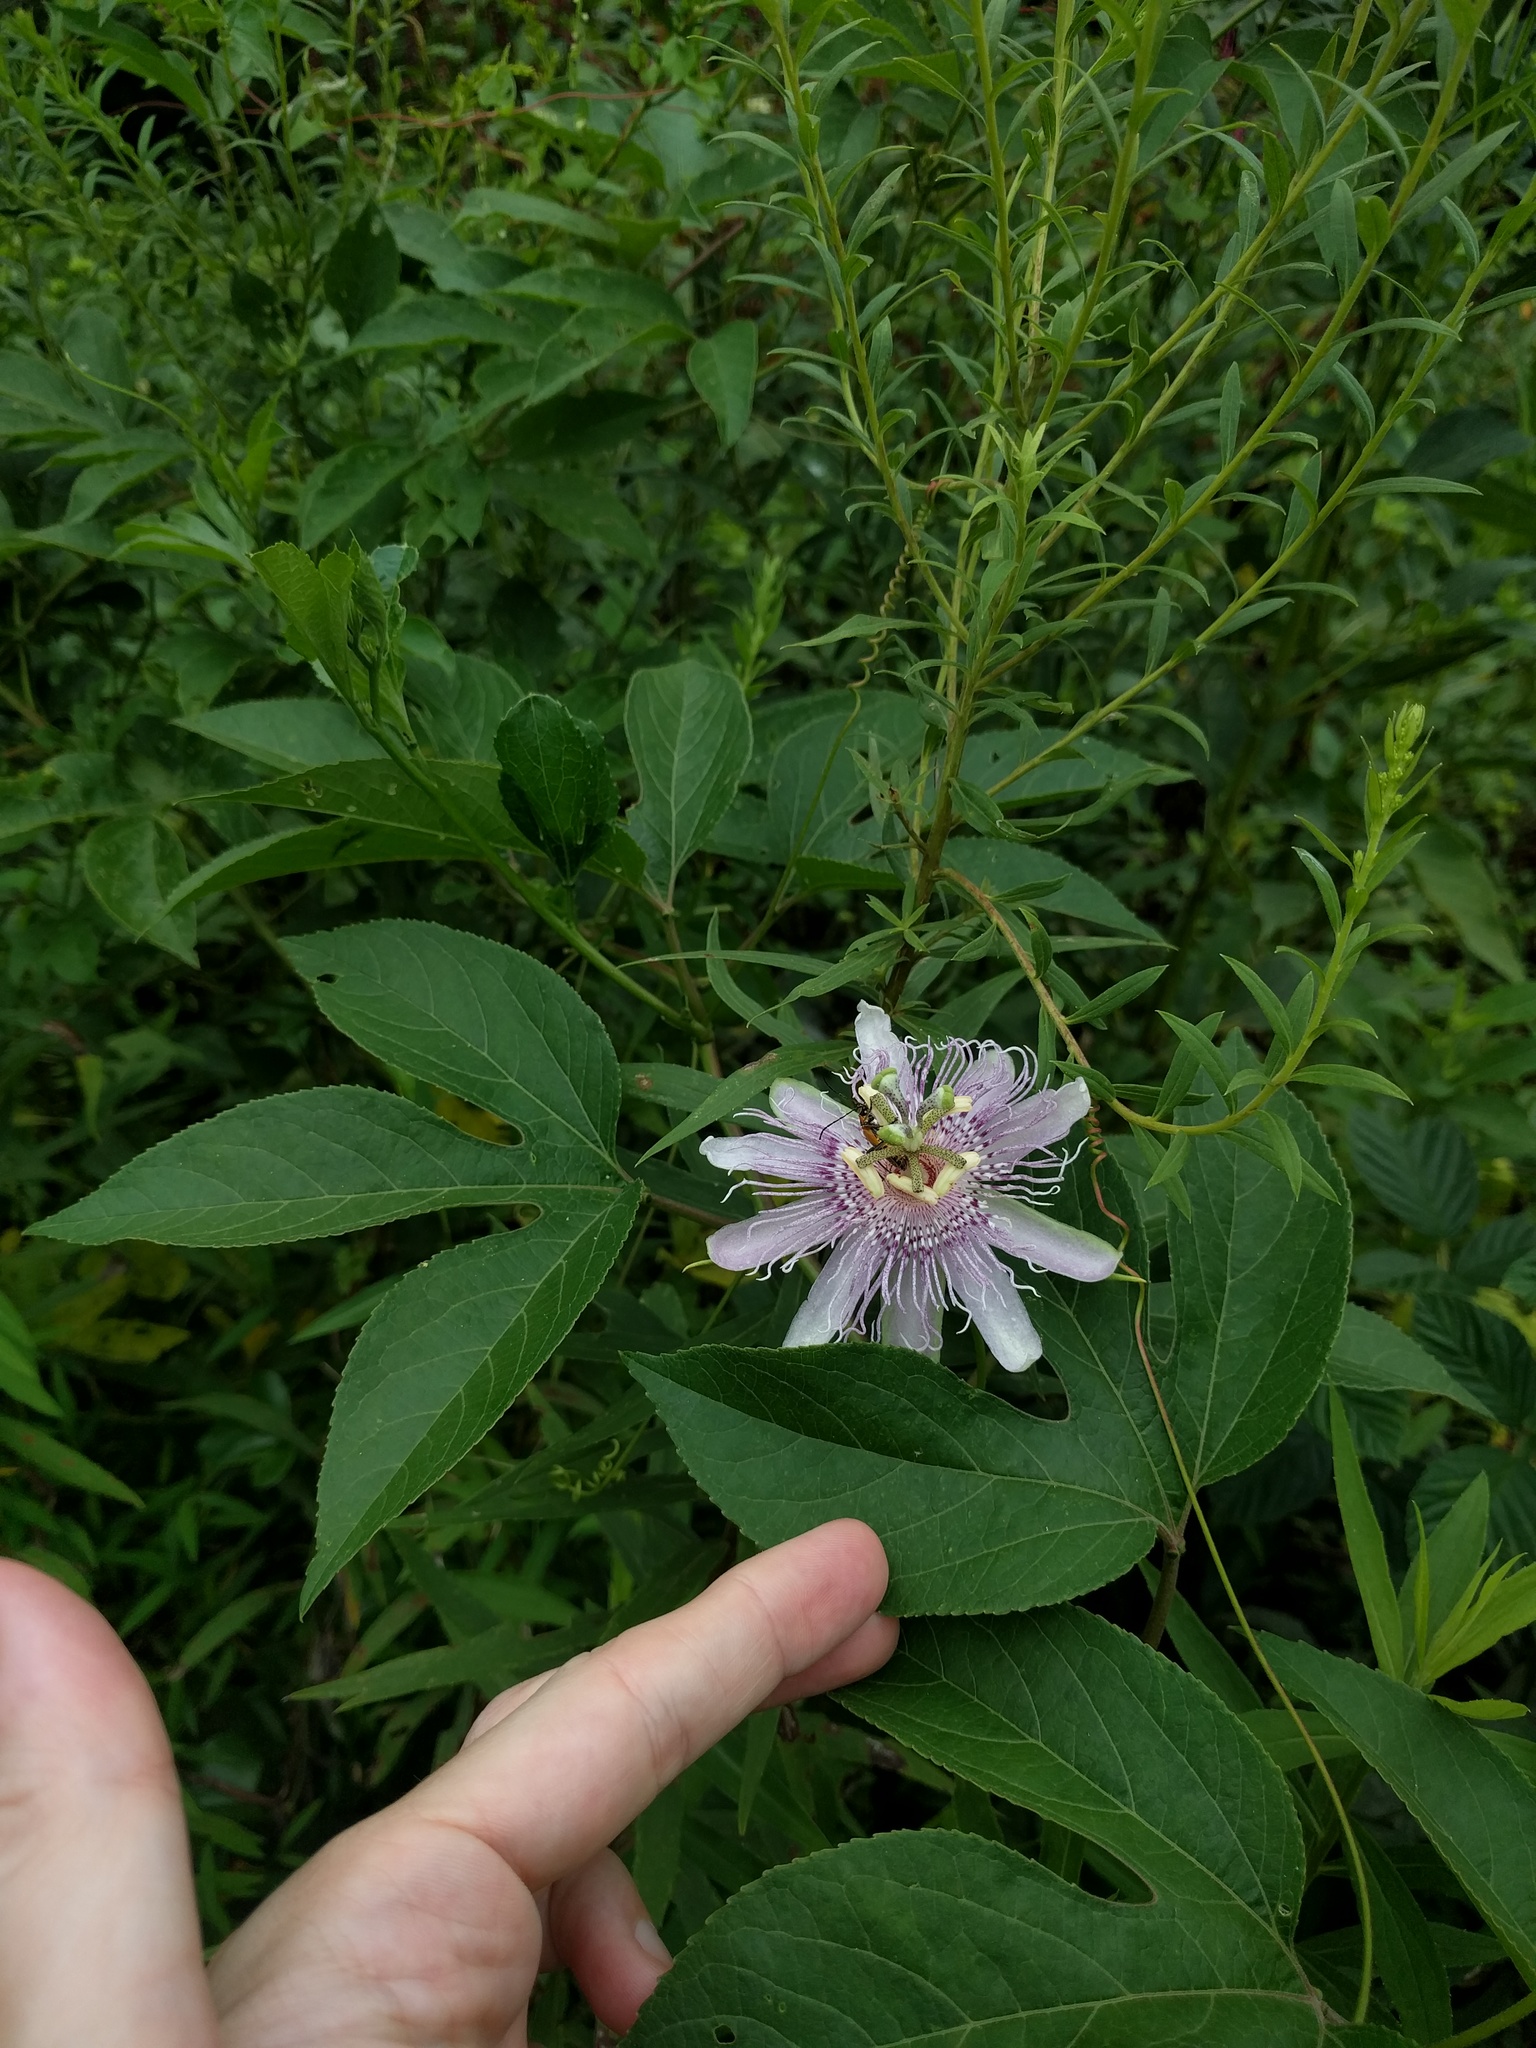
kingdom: Plantae
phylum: Tracheophyta
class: Magnoliopsida
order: Malpighiales
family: Passifloraceae
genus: Passiflora
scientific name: Passiflora incarnata
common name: Apricot-vine
